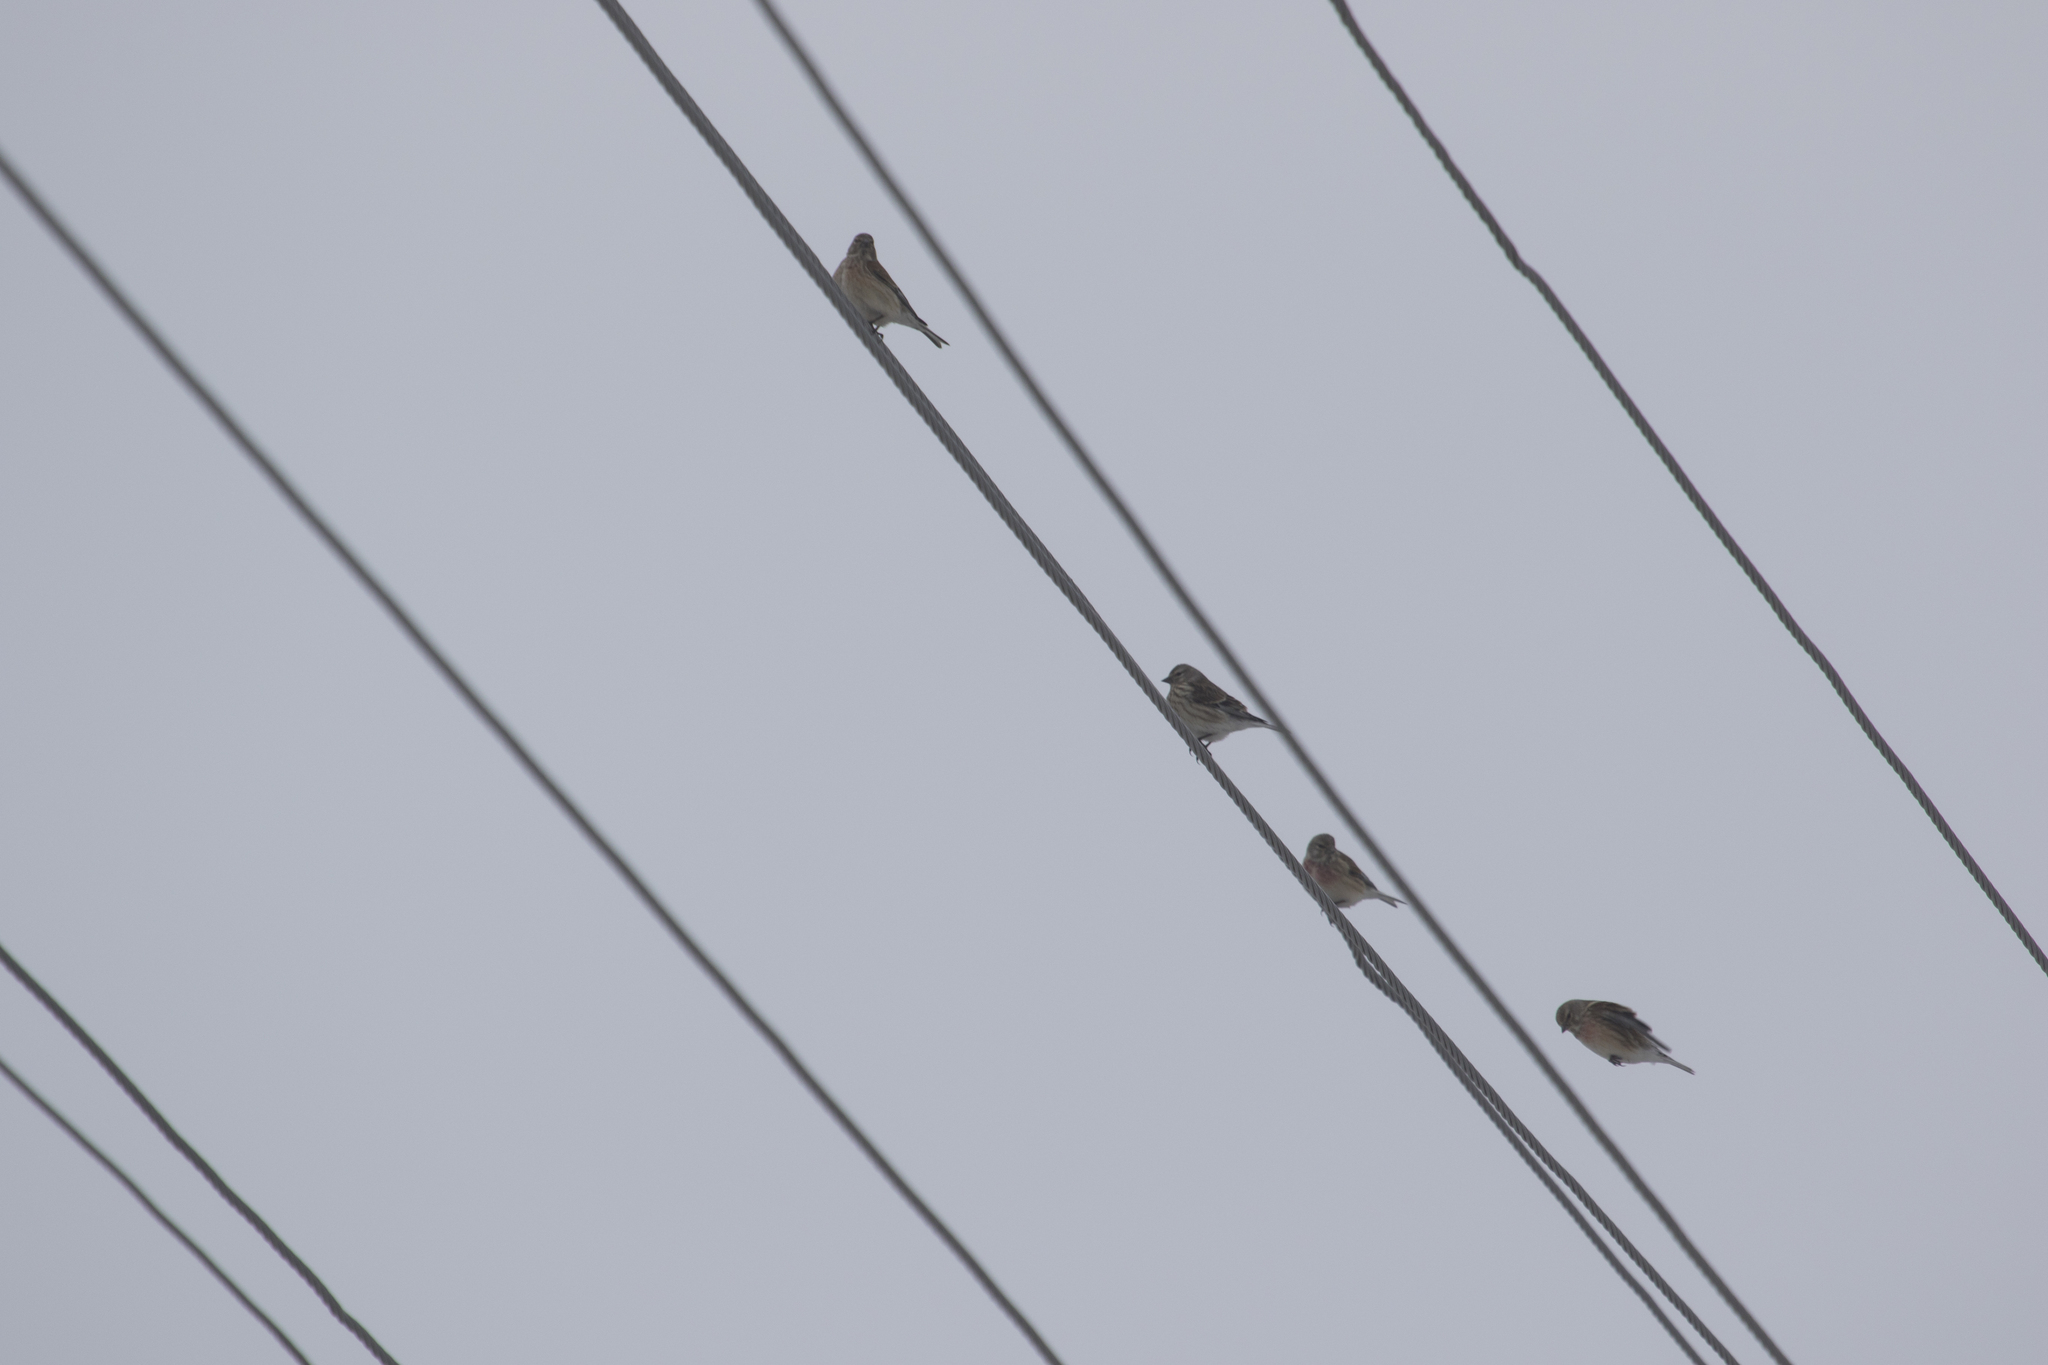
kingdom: Animalia
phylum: Chordata
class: Aves
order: Passeriformes
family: Fringillidae
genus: Linaria
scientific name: Linaria cannabina
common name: Common linnet
